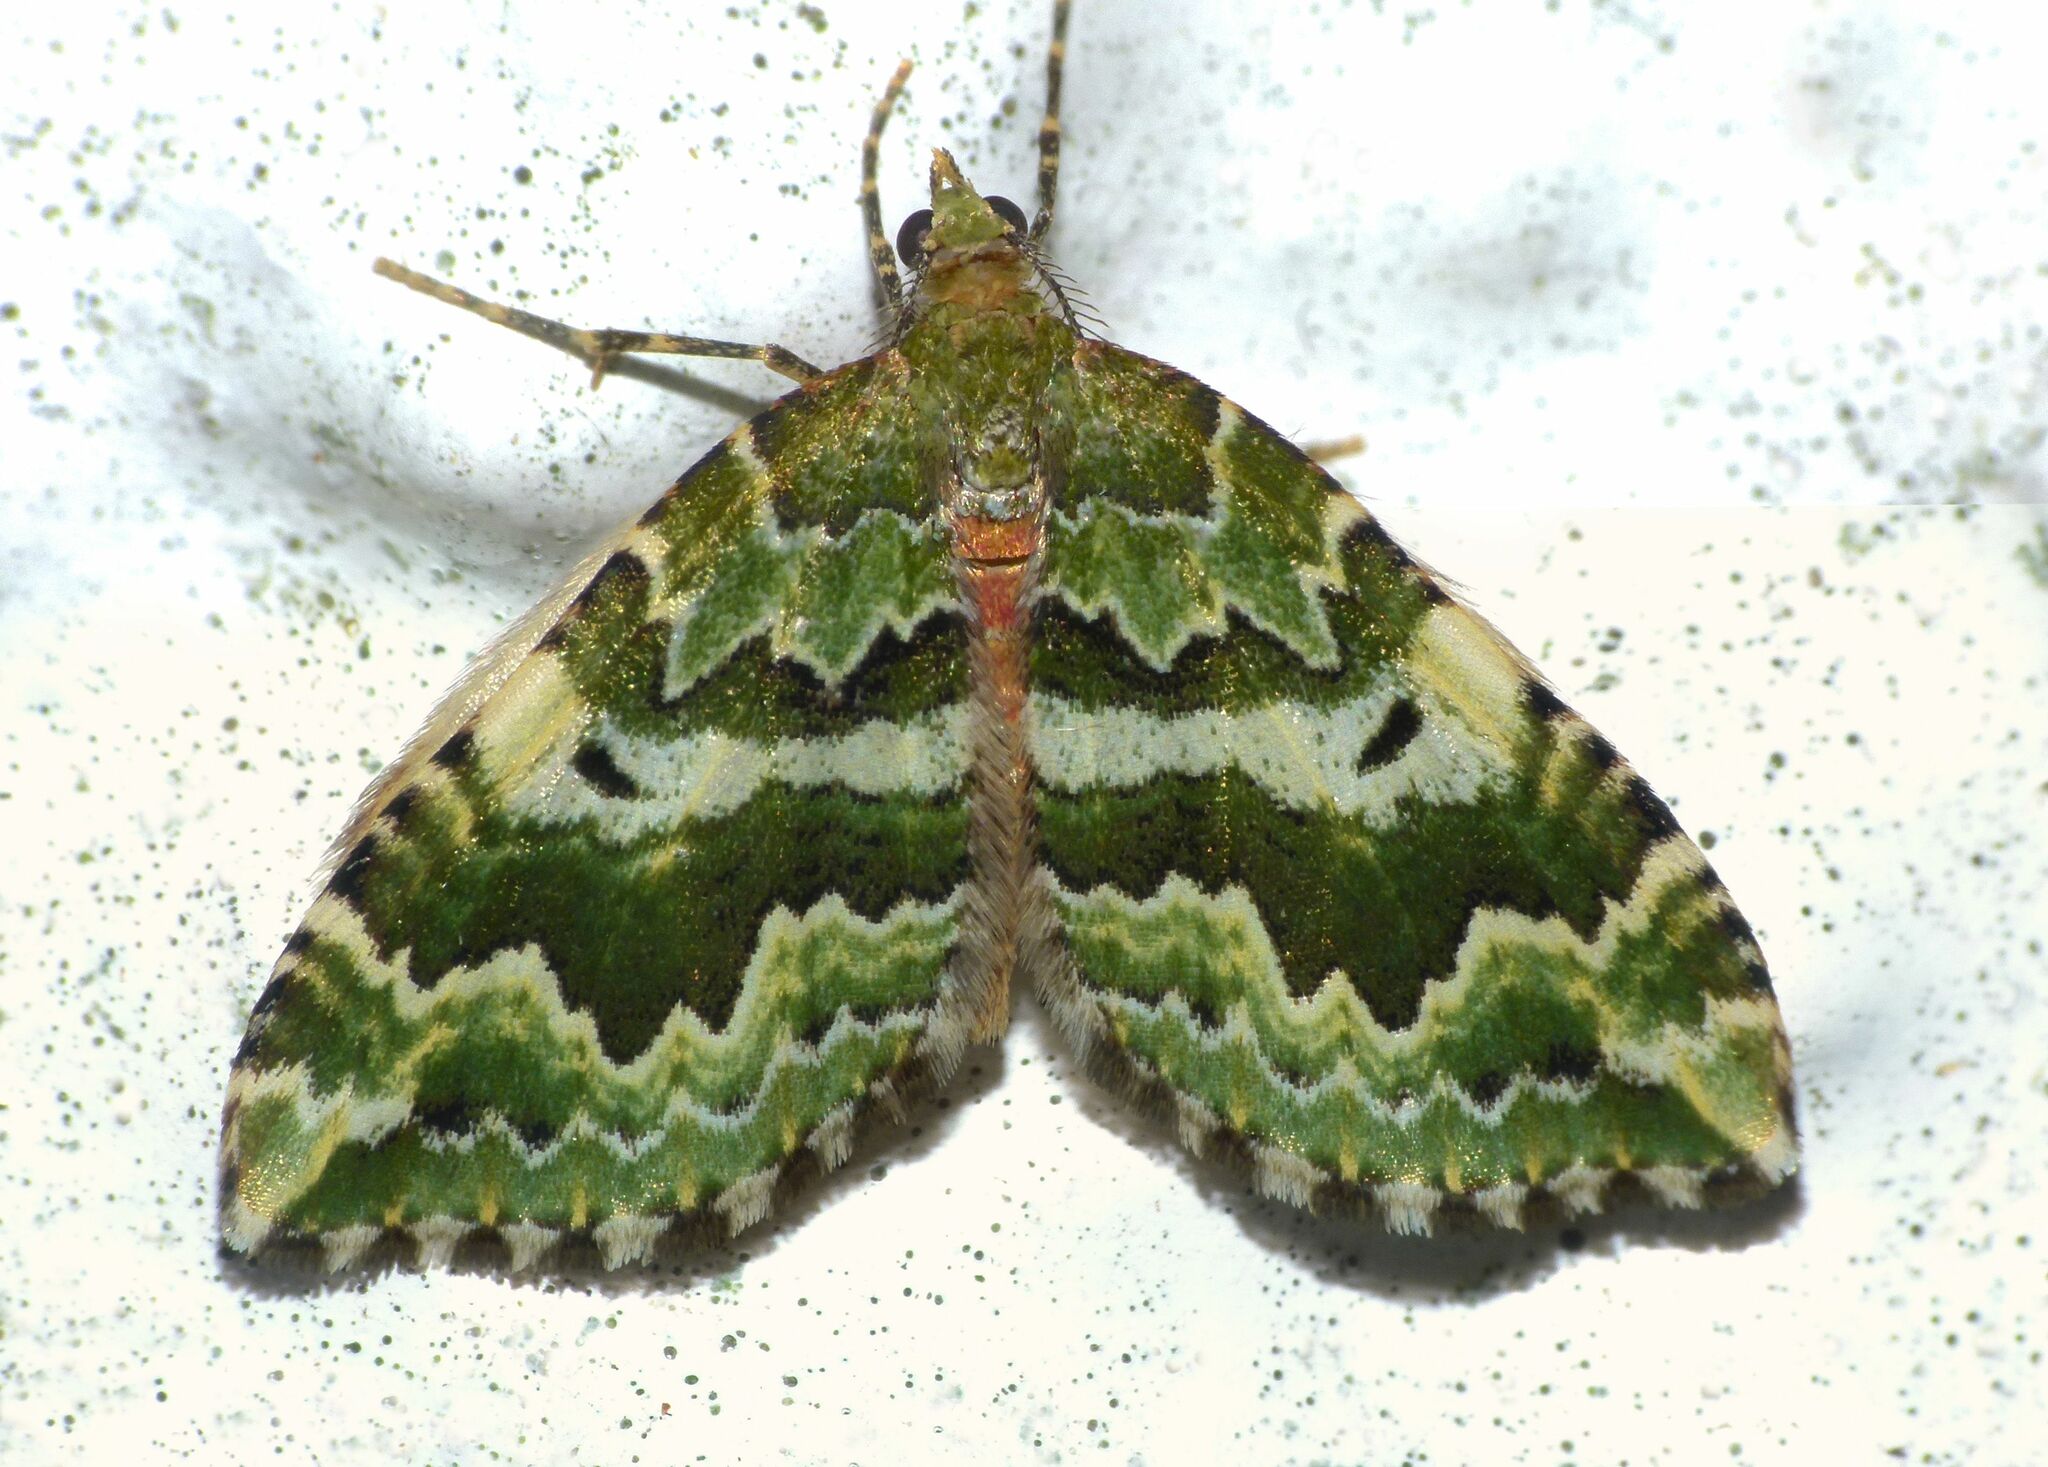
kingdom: Animalia
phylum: Arthropoda
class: Insecta
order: Lepidoptera
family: Geometridae
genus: Asaphodes
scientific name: Asaphodes beata
